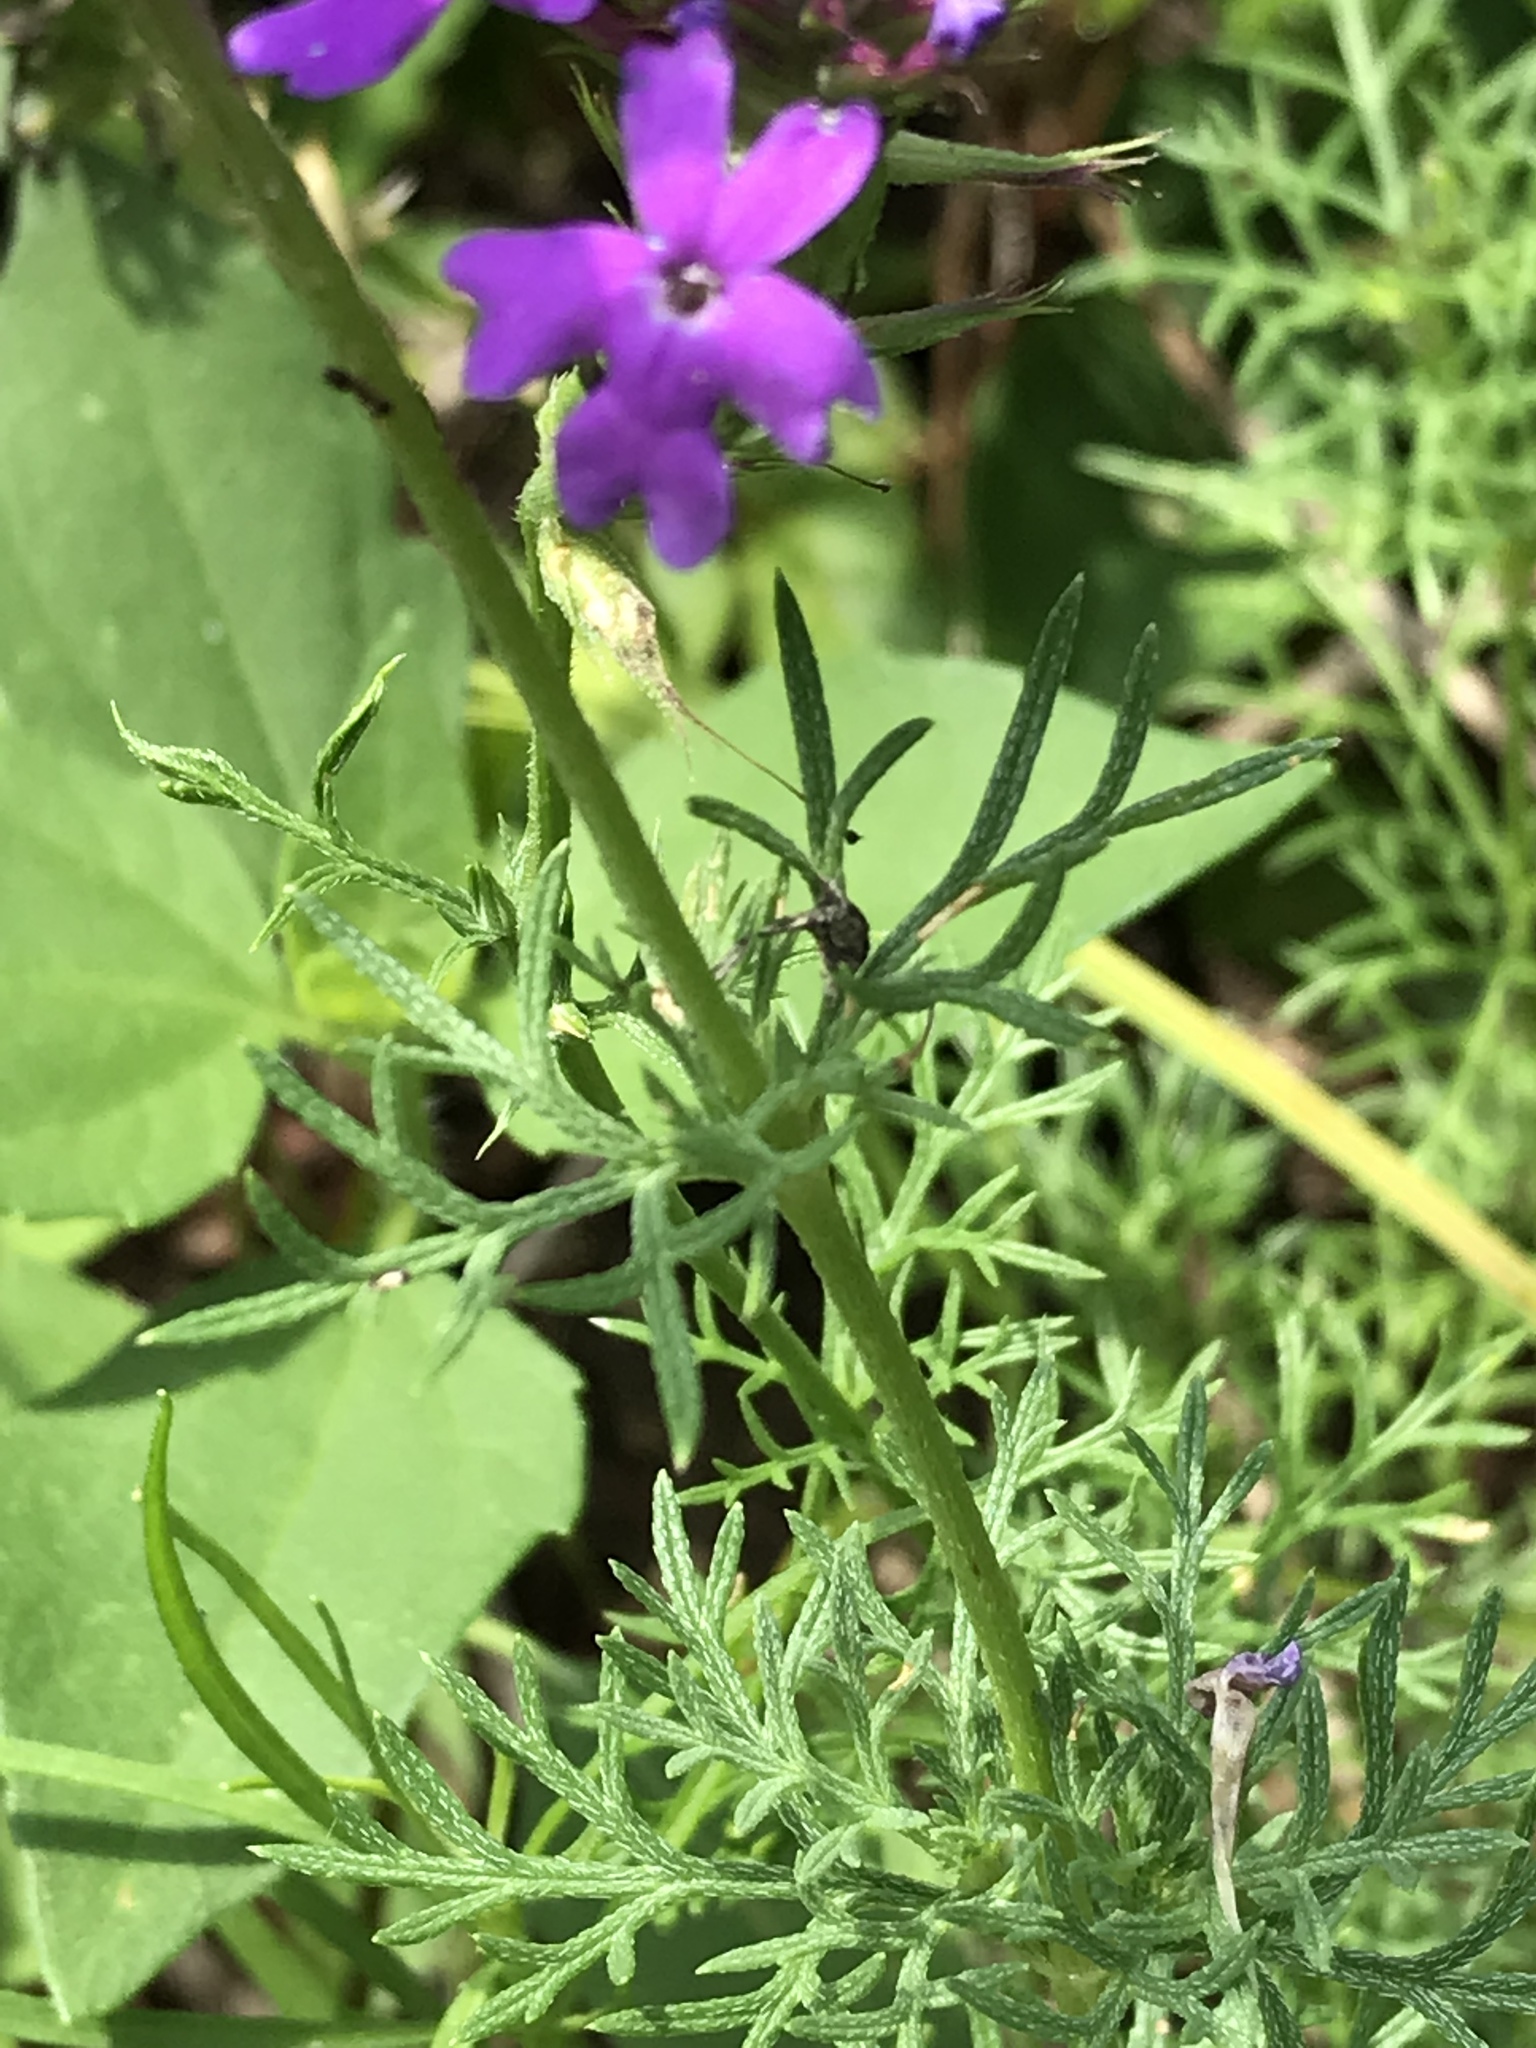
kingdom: Plantae
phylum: Tracheophyta
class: Magnoliopsida
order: Lamiales
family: Verbenaceae
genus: Verbena
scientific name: Verbena tenera
